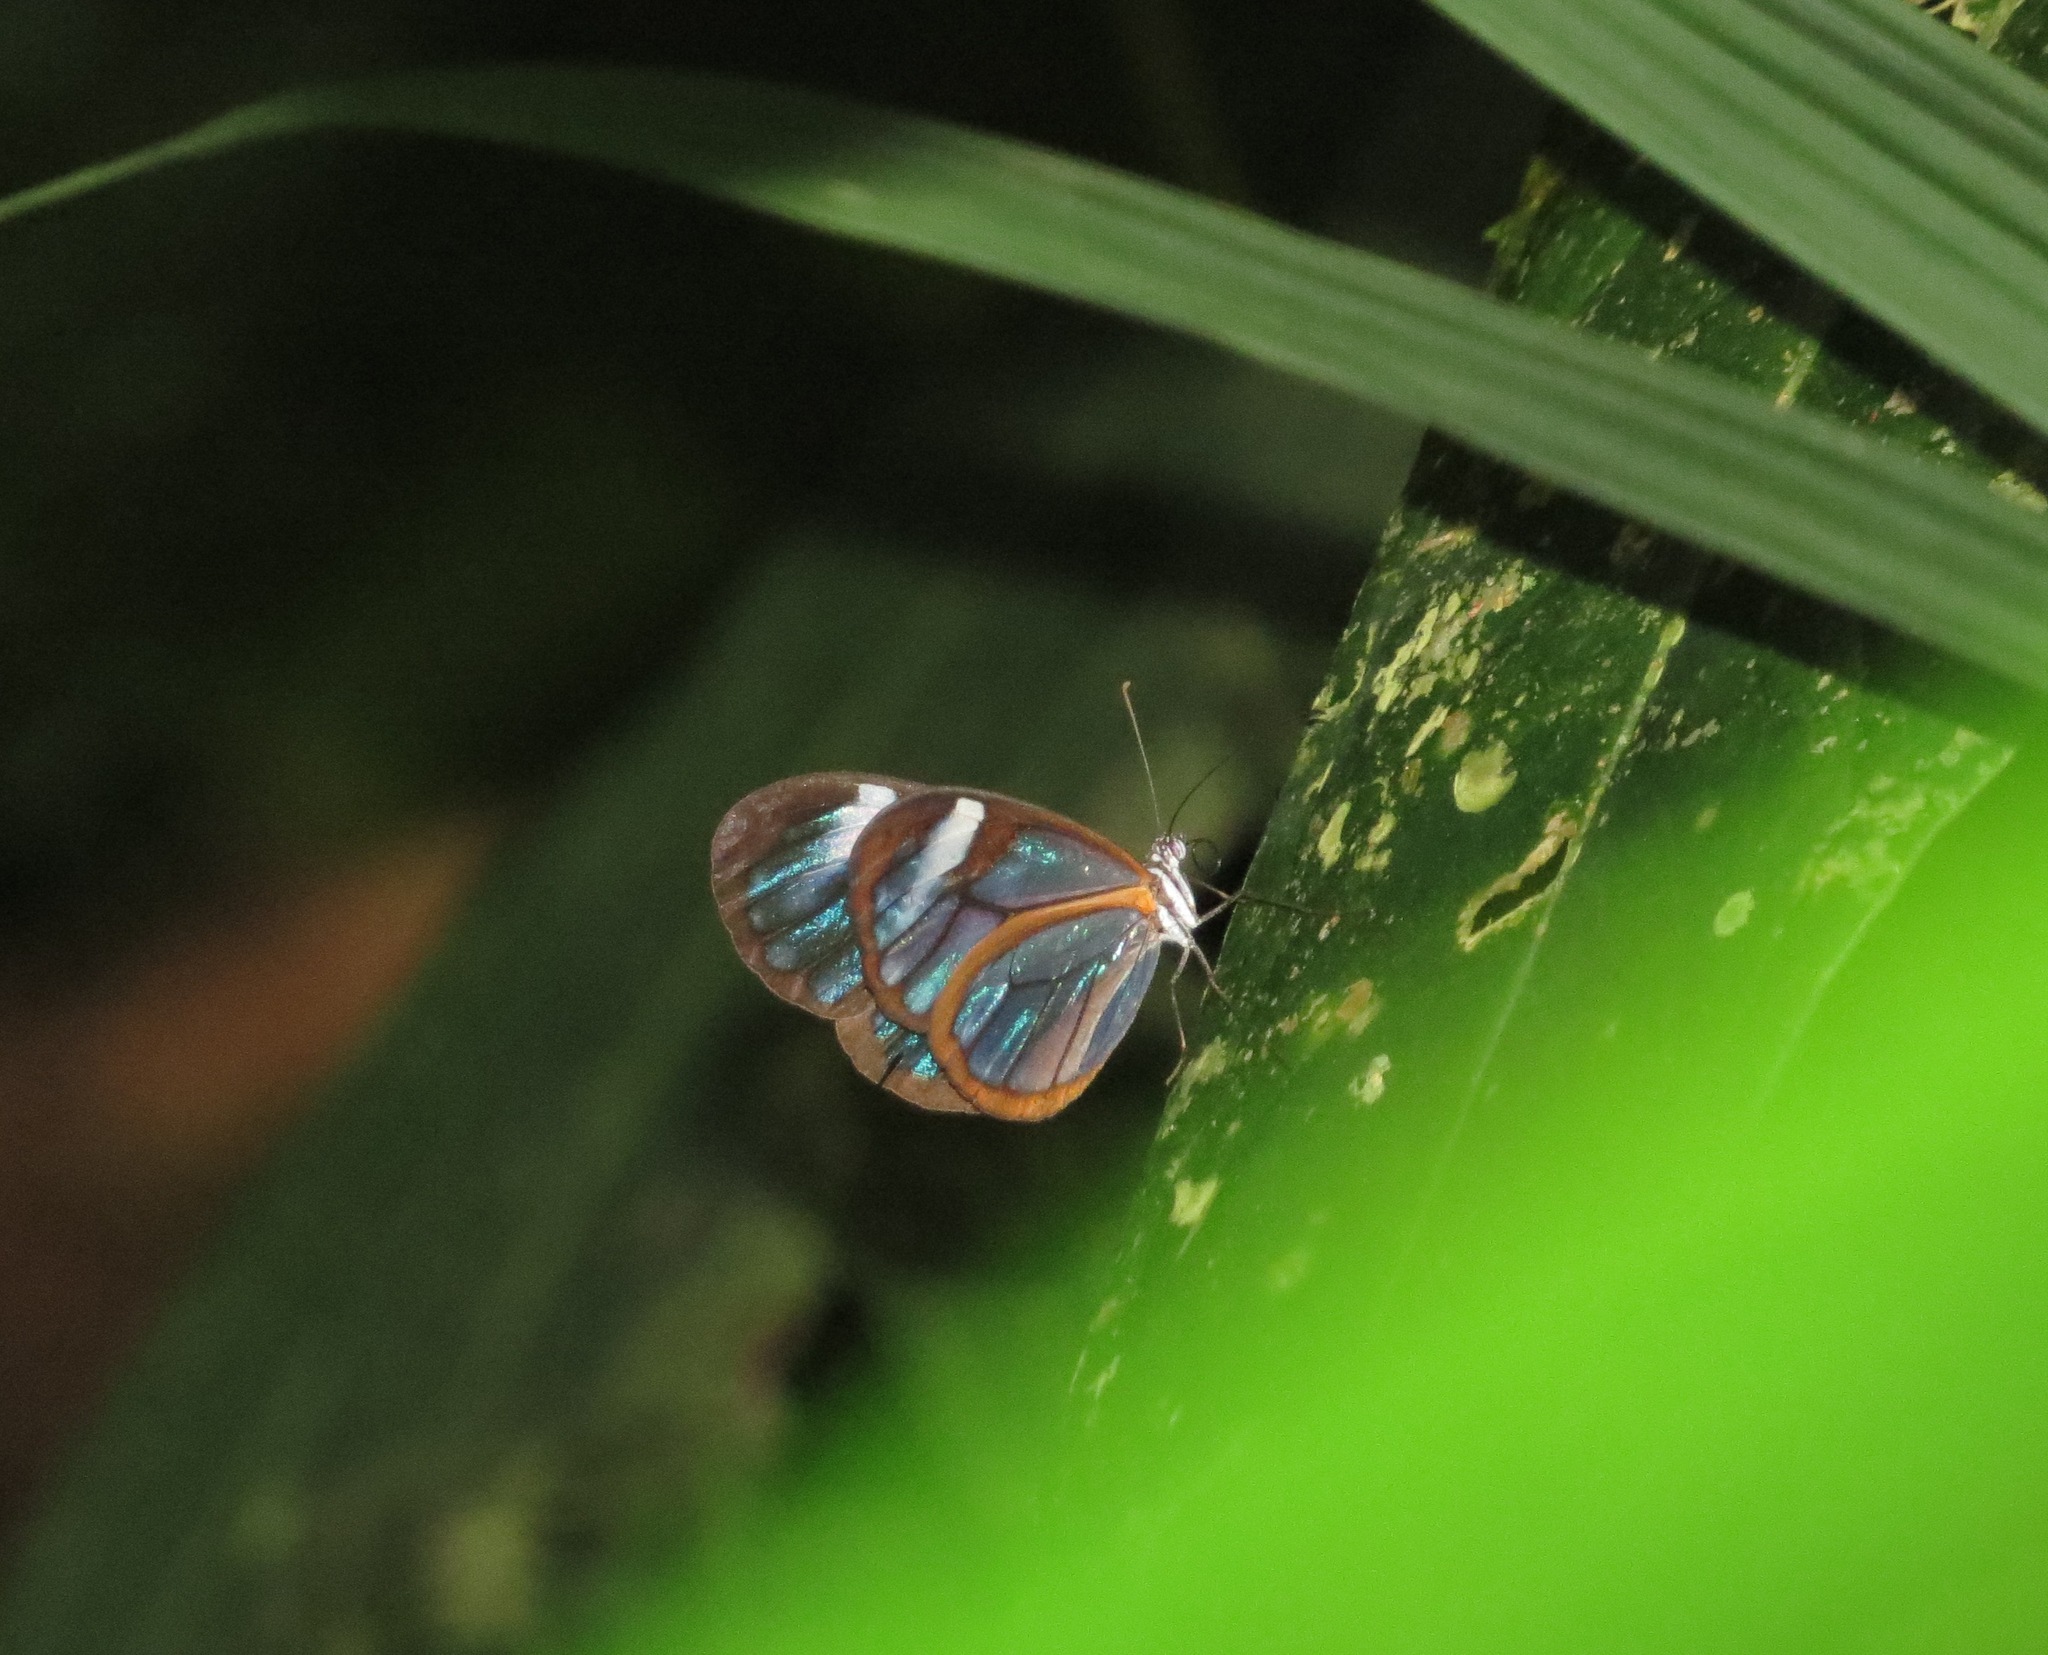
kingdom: Animalia
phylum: Arthropoda
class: Insecta
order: Lepidoptera
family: Nymphalidae
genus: Hypoleria
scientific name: Hypoleria lavinia
